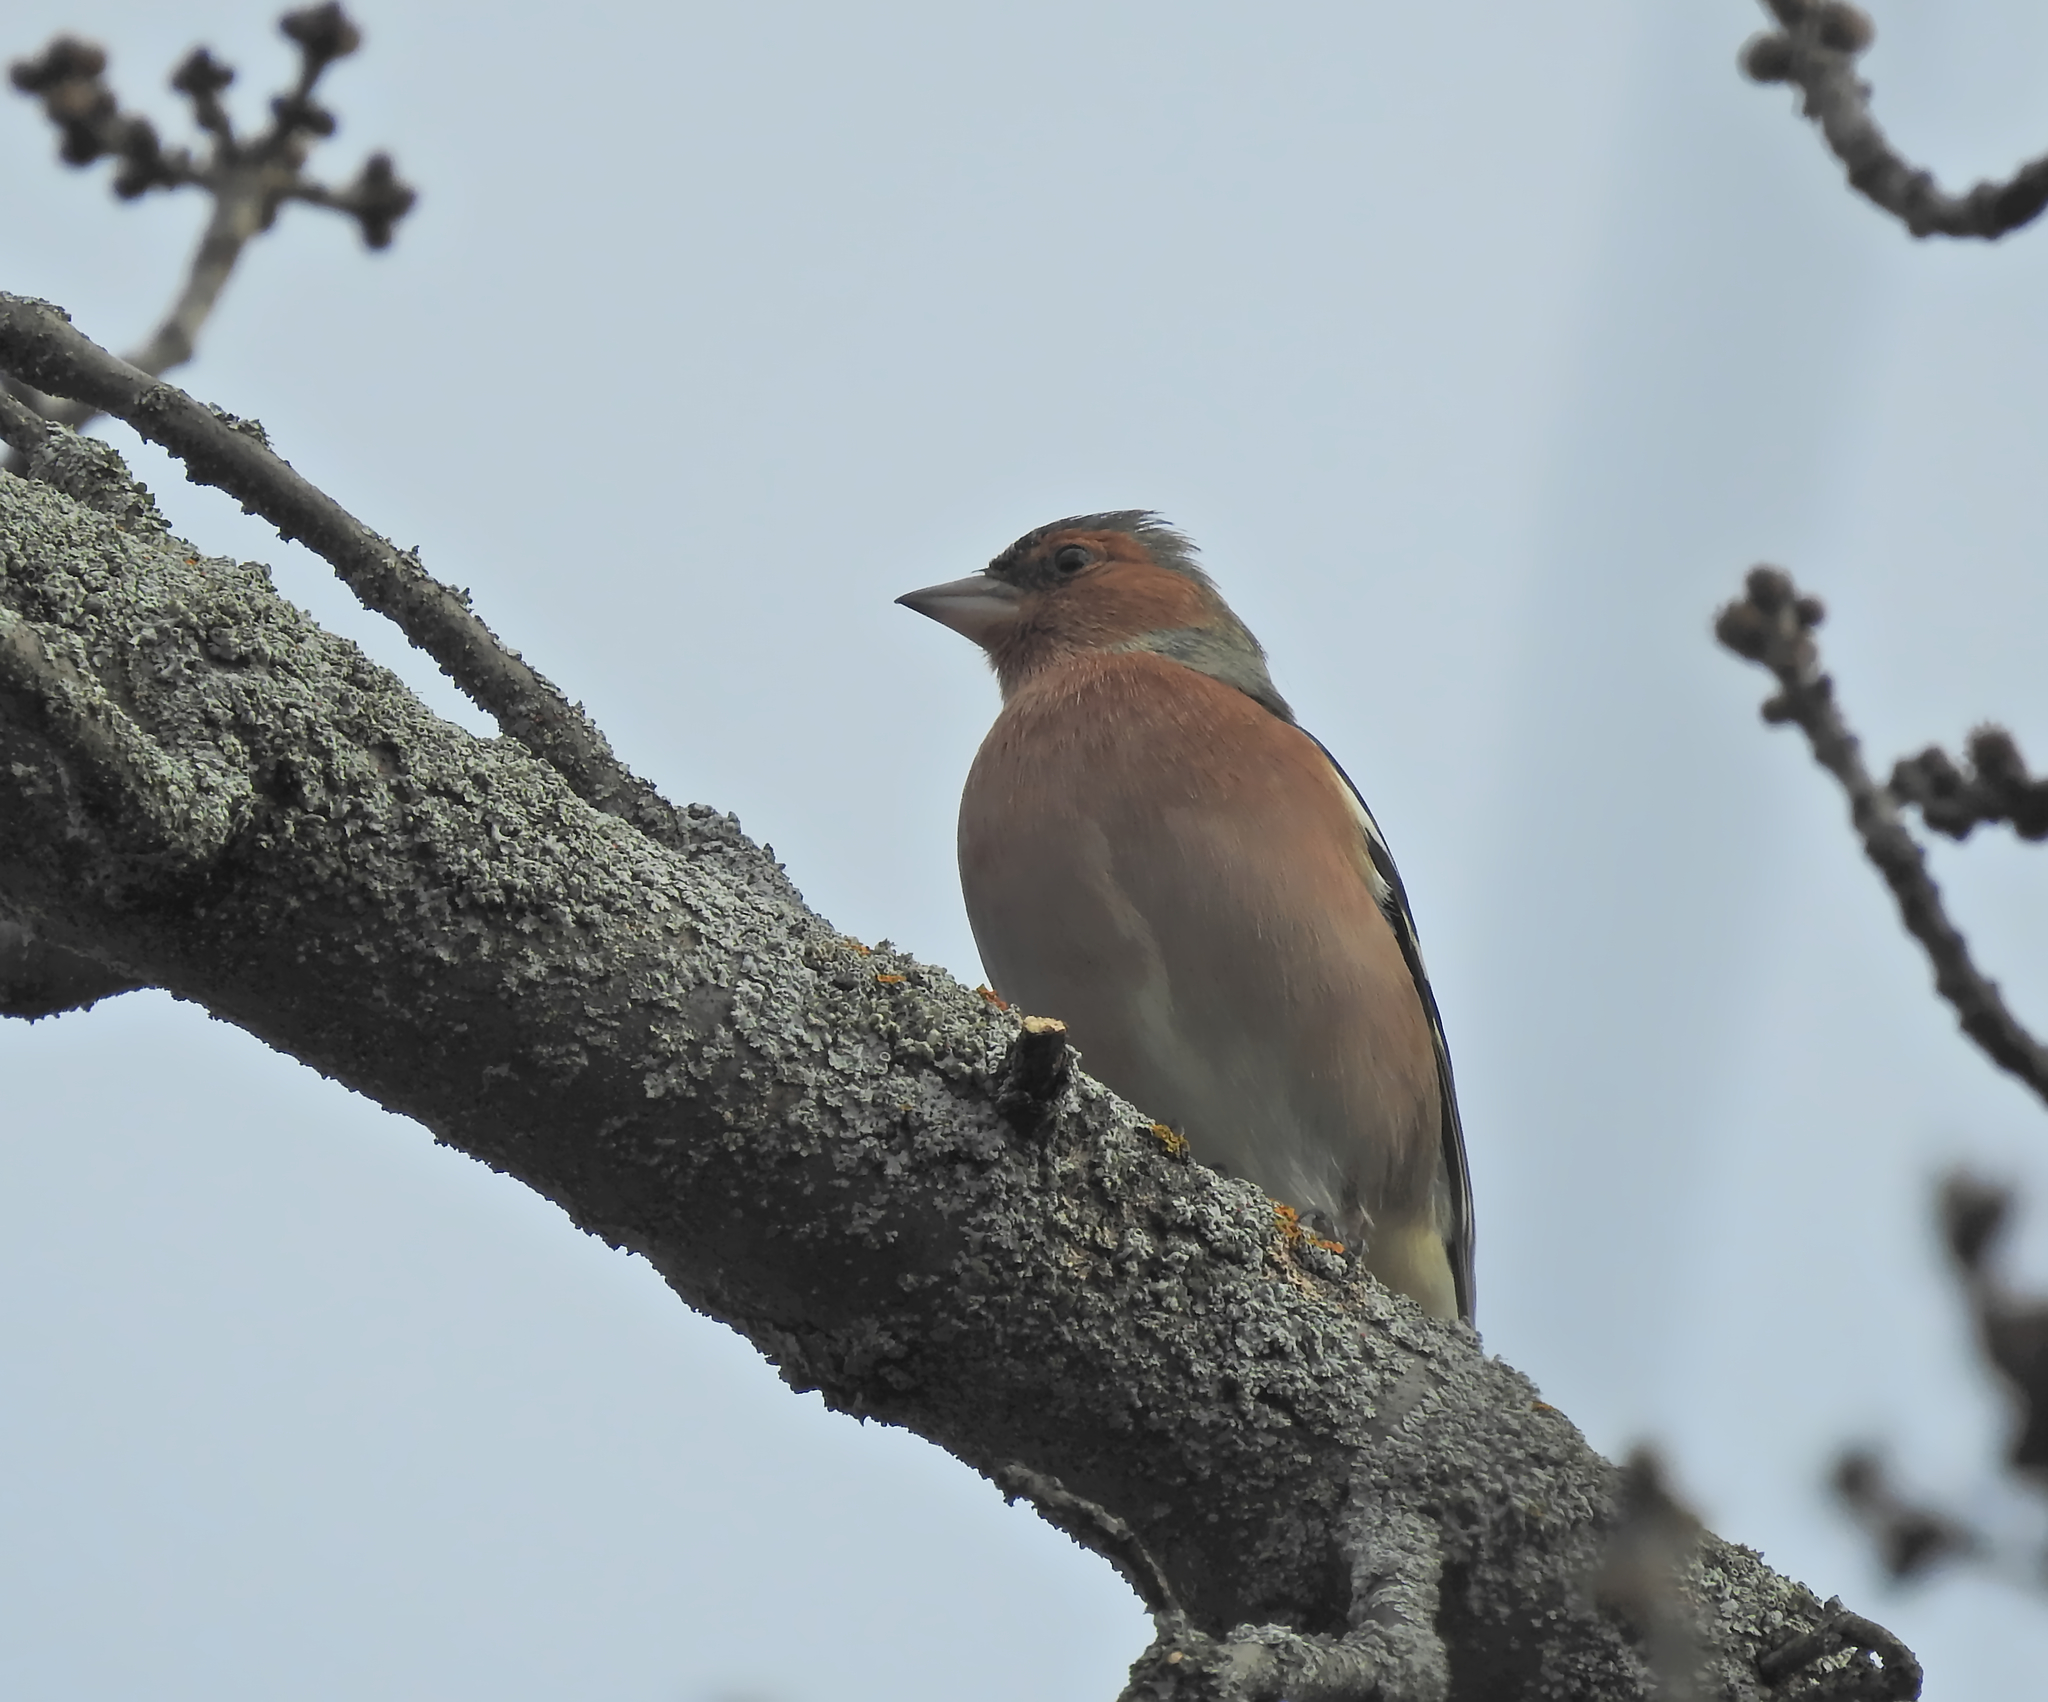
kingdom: Animalia
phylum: Chordata
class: Aves
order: Passeriformes
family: Fringillidae
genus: Fringilla
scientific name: Fringilla coelebs
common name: Common chaffinch
